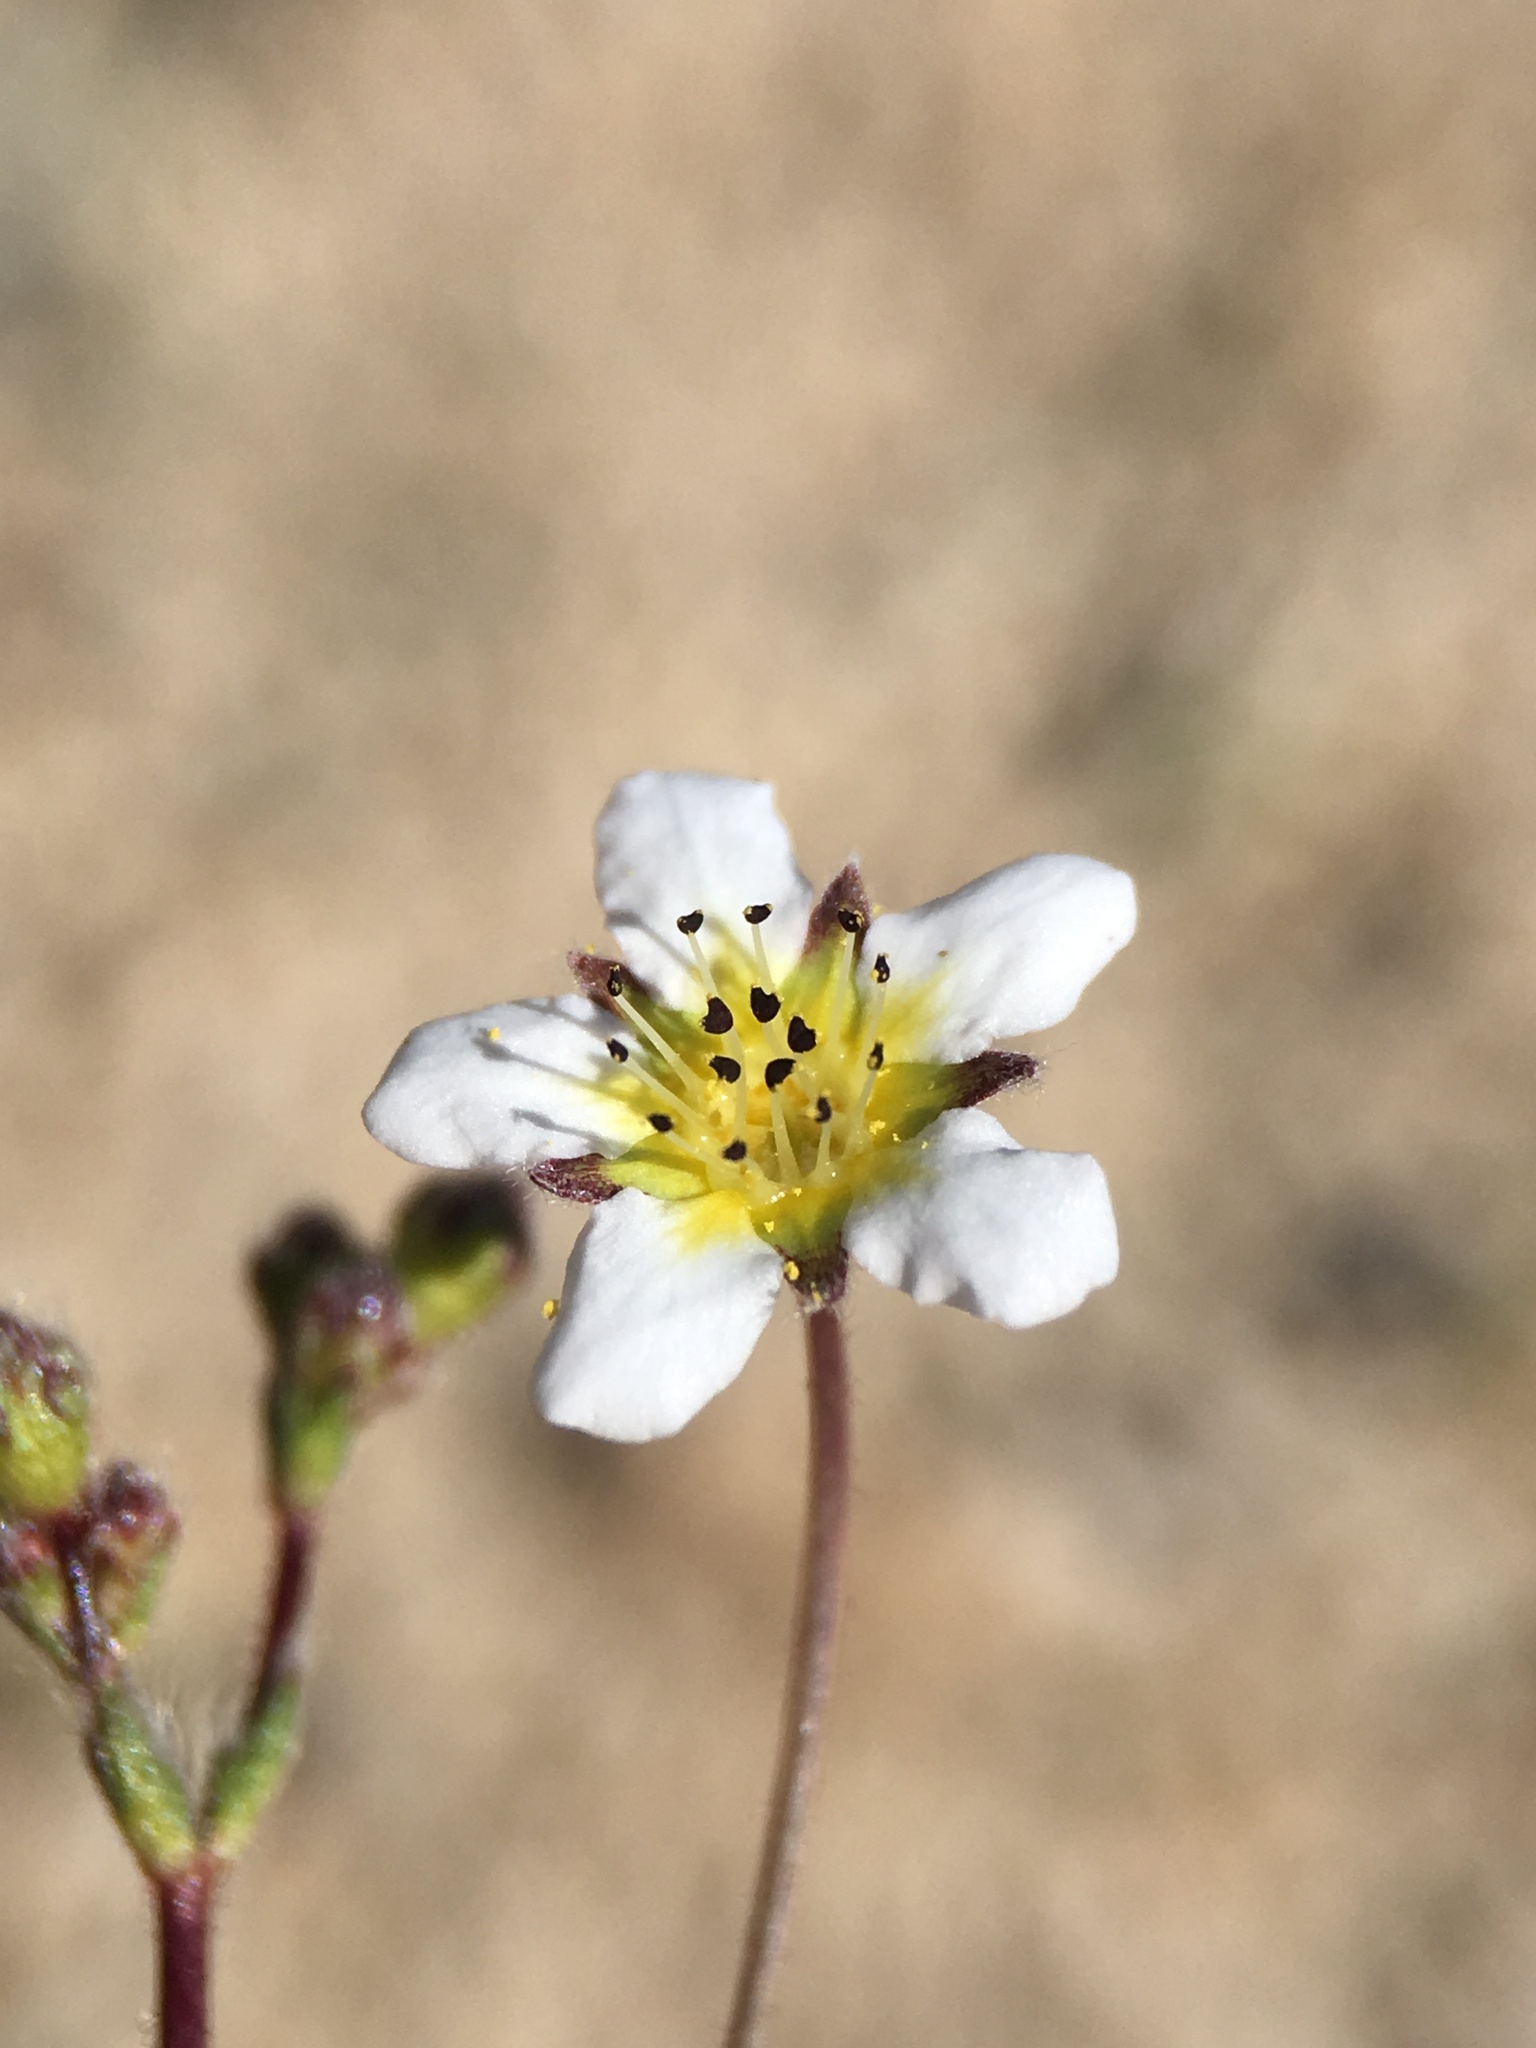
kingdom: Plantae
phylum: Tracheophyta
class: Magnoliopsida
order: Rosales
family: Rosaceae
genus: Potentilla
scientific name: Potentilla santolinoides
